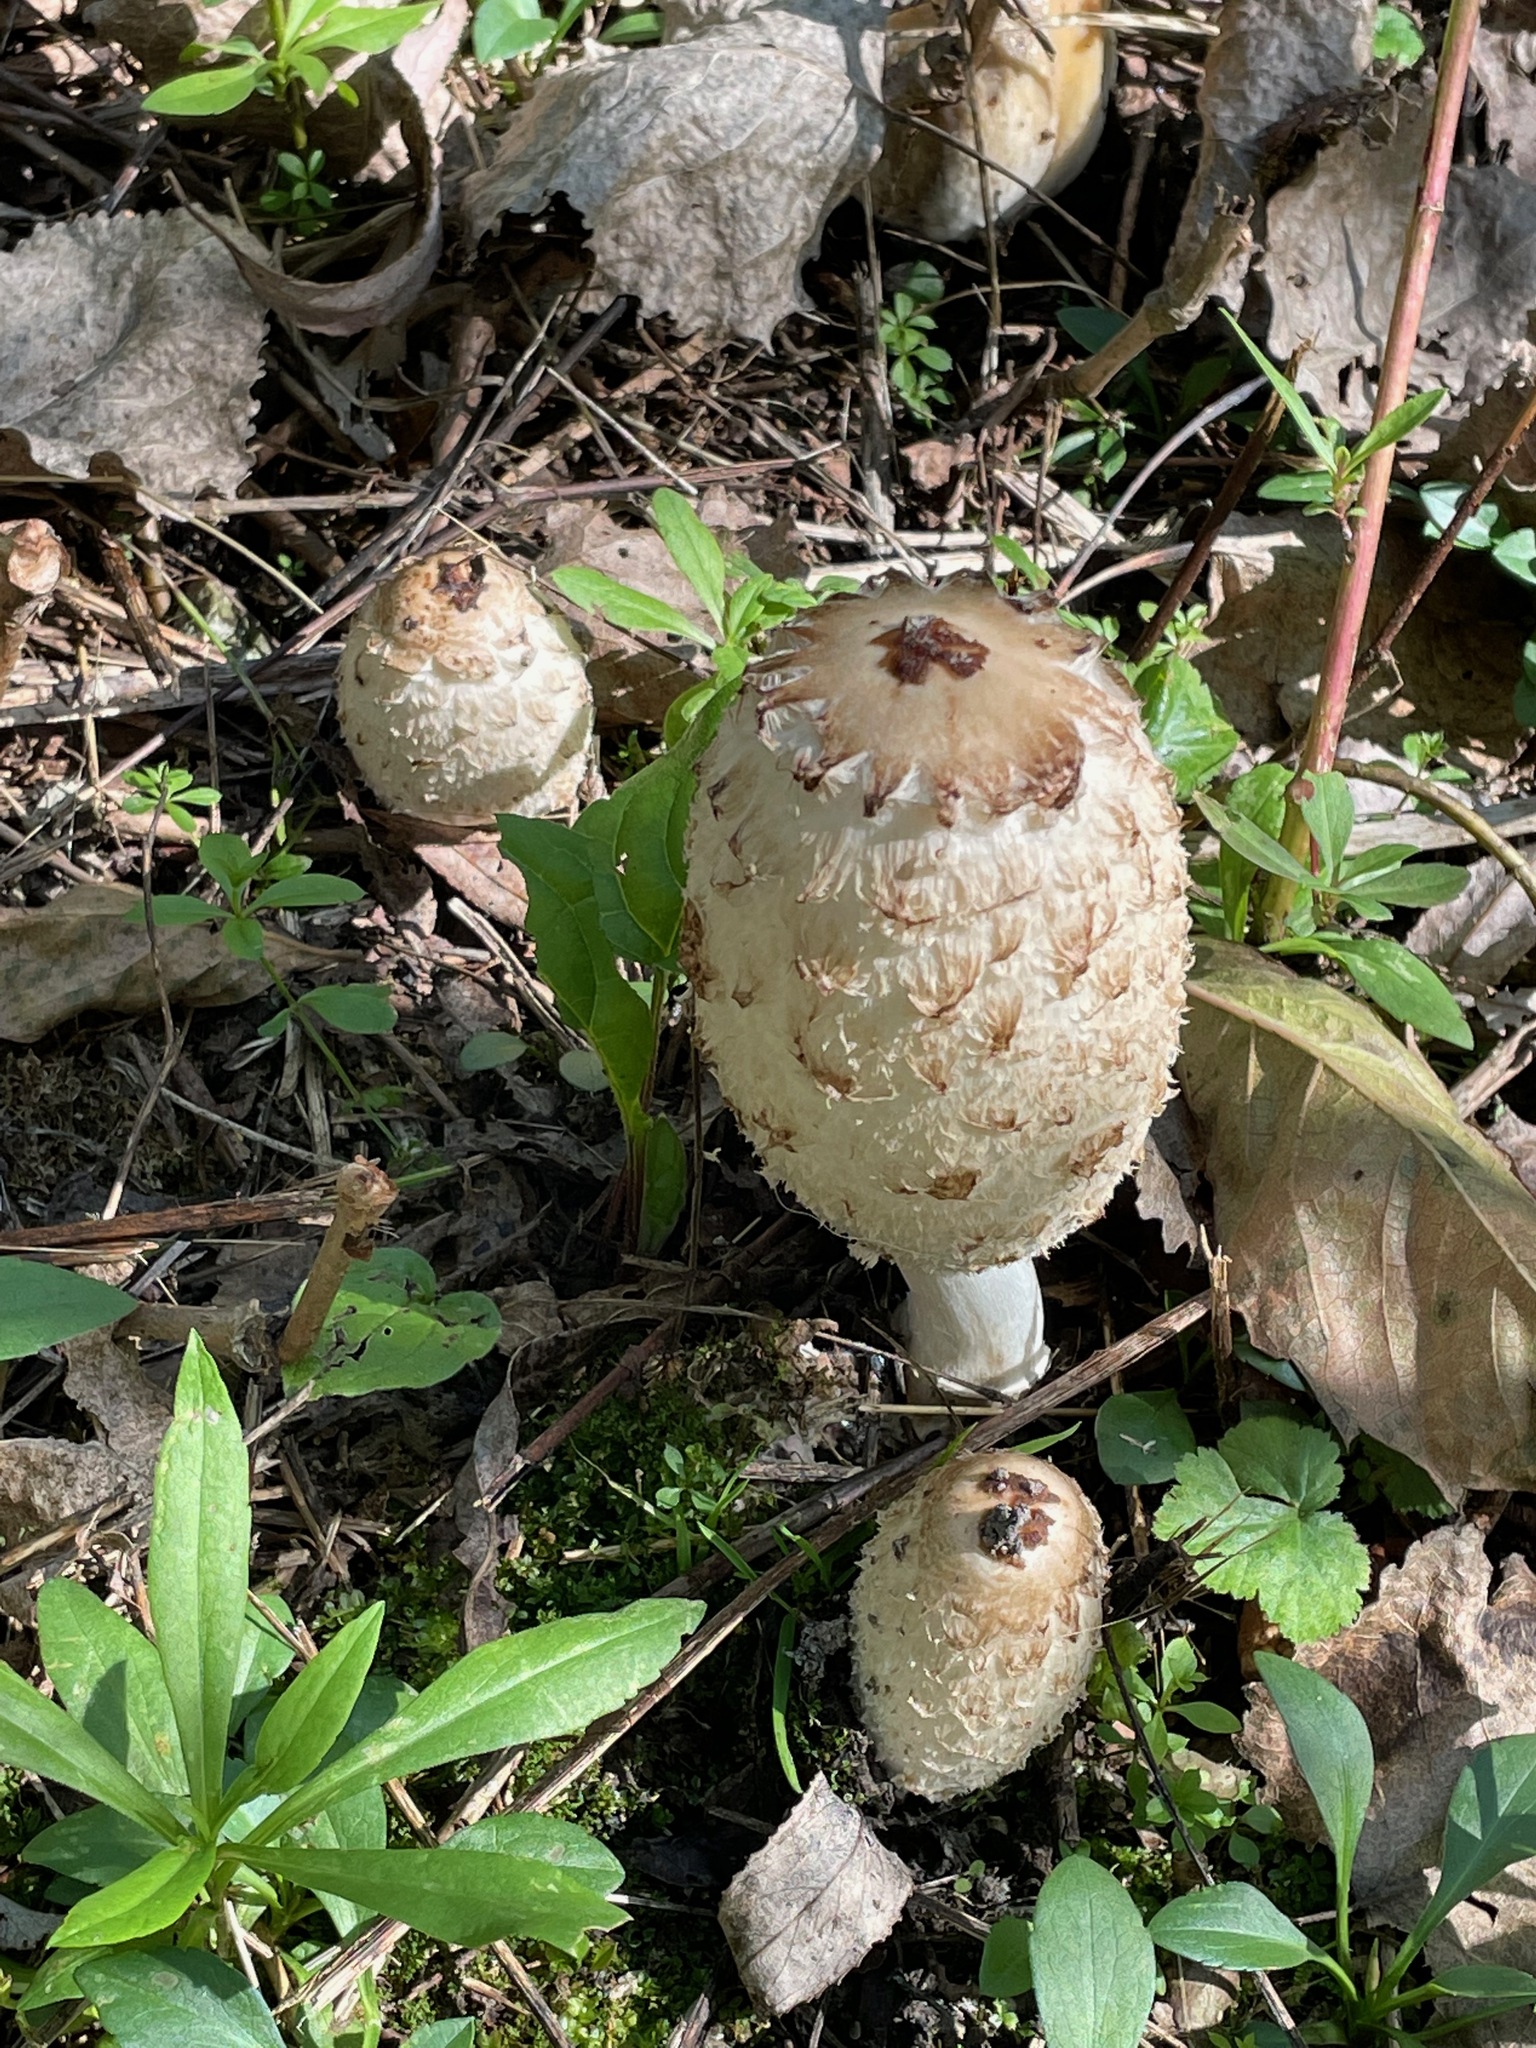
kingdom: Fungi
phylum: Basidiomycota
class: Agaricomycetes
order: Agaricales
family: Agaricaceae
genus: Coprinus
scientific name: Coprinus comatus
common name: Lawyer's wig
